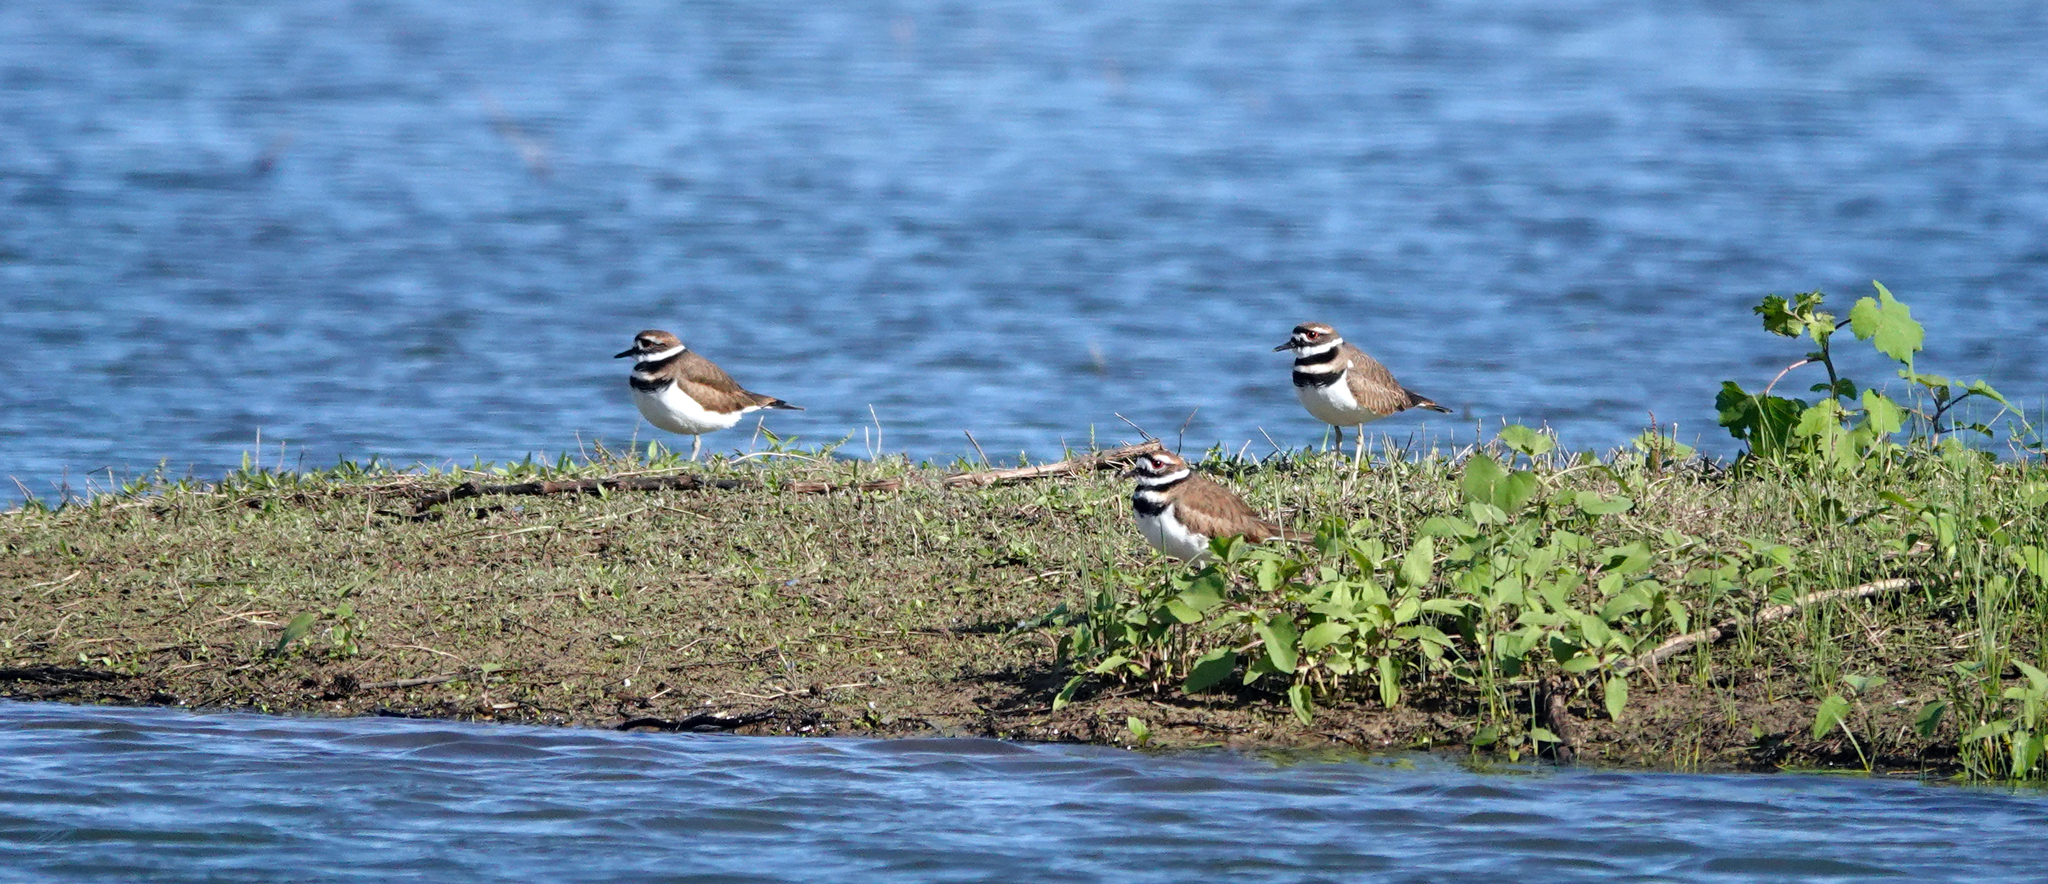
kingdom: Animalia
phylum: Chordata
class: Aves
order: Charadriiformes
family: Charadriidae
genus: Charadrius
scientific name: Charadrius vociferus
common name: Killdeer
